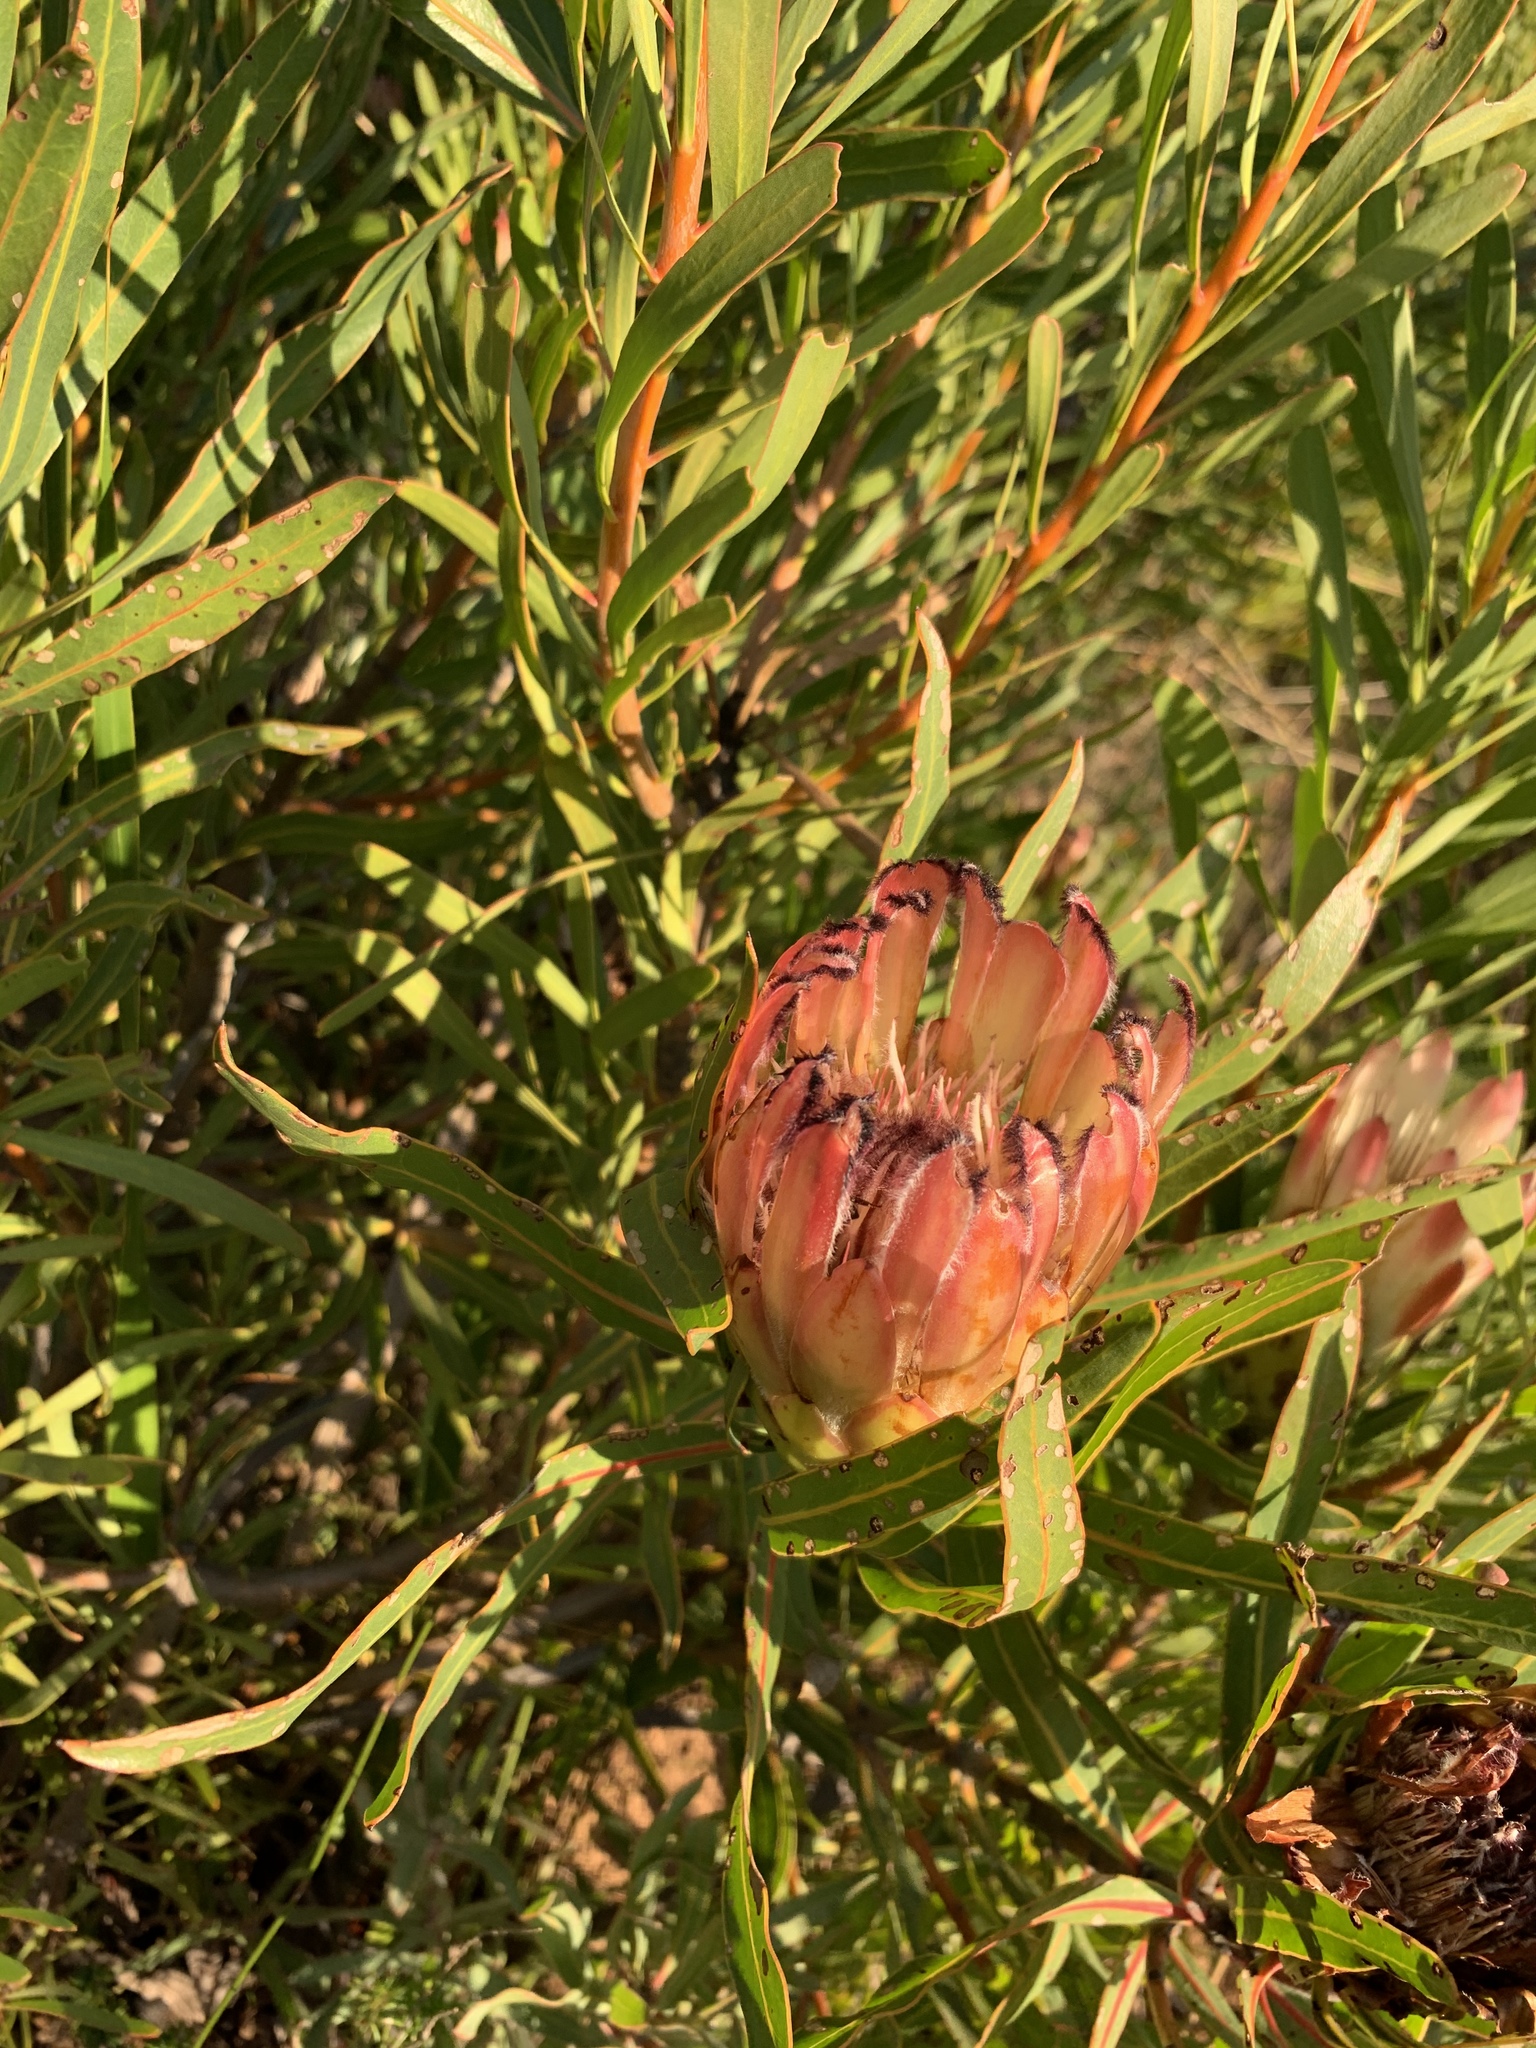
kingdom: Plantae
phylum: Tracheophyta
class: Magnoliopsida
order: Proteales
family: Proteaceae
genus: Protea
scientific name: Protea burchellii
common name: Burchell's sugarbush
